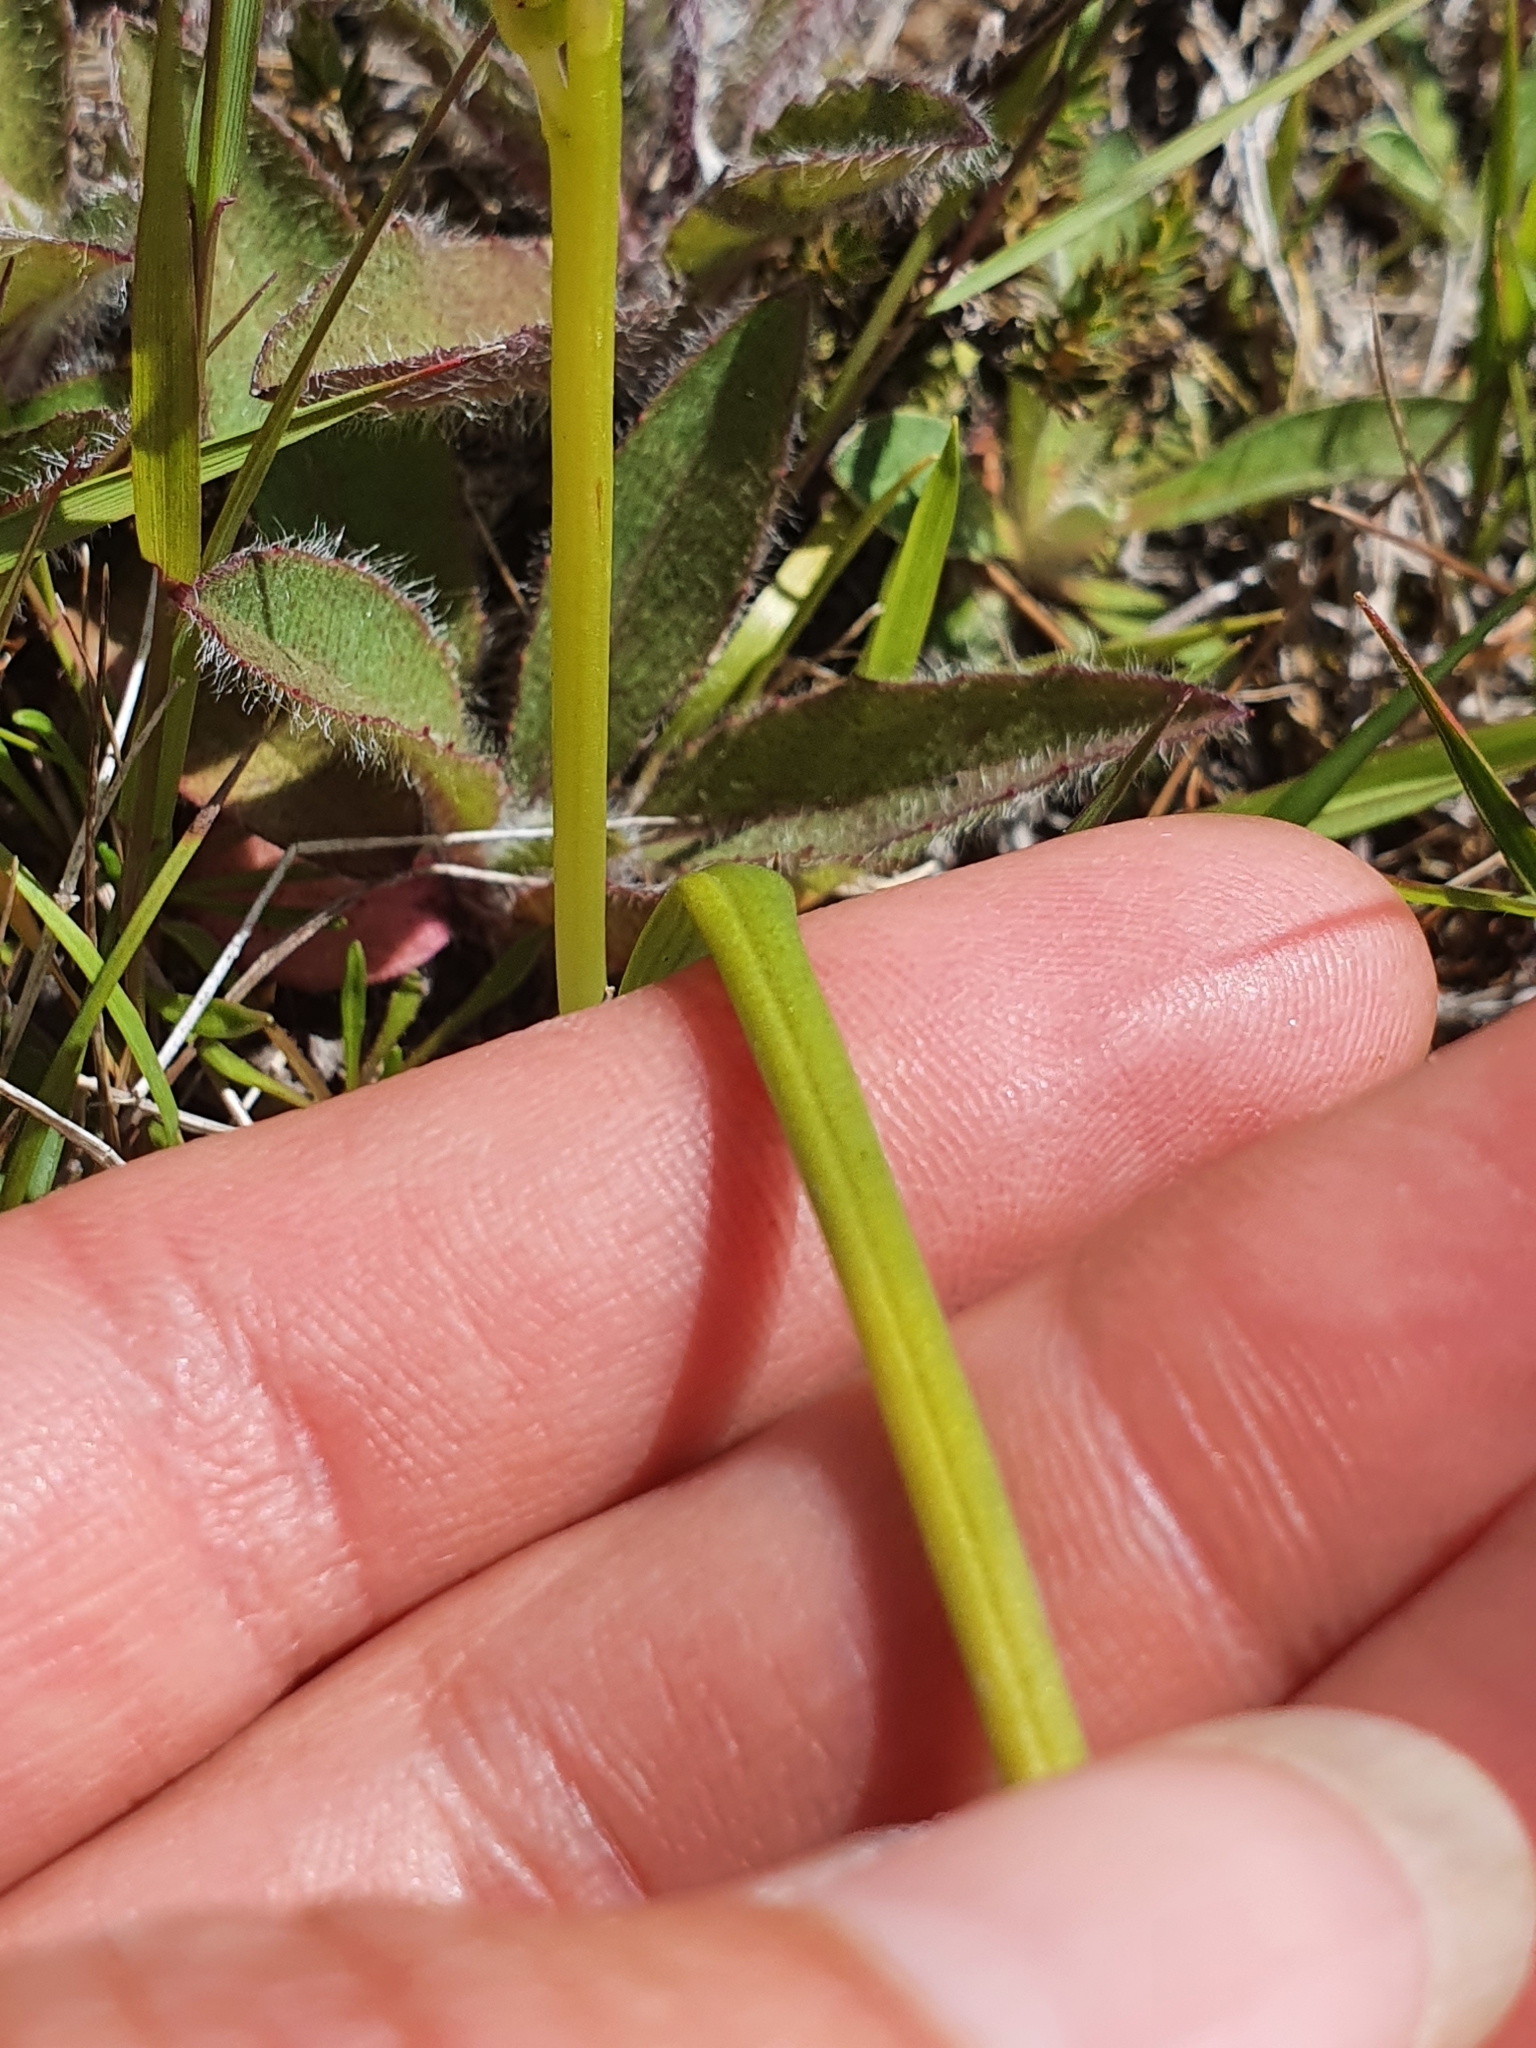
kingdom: Plantae
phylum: Tracheophyta
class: Liliopsida
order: Asparagales
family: Orchidaceae
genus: Microtis
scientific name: Microtis unifolia
